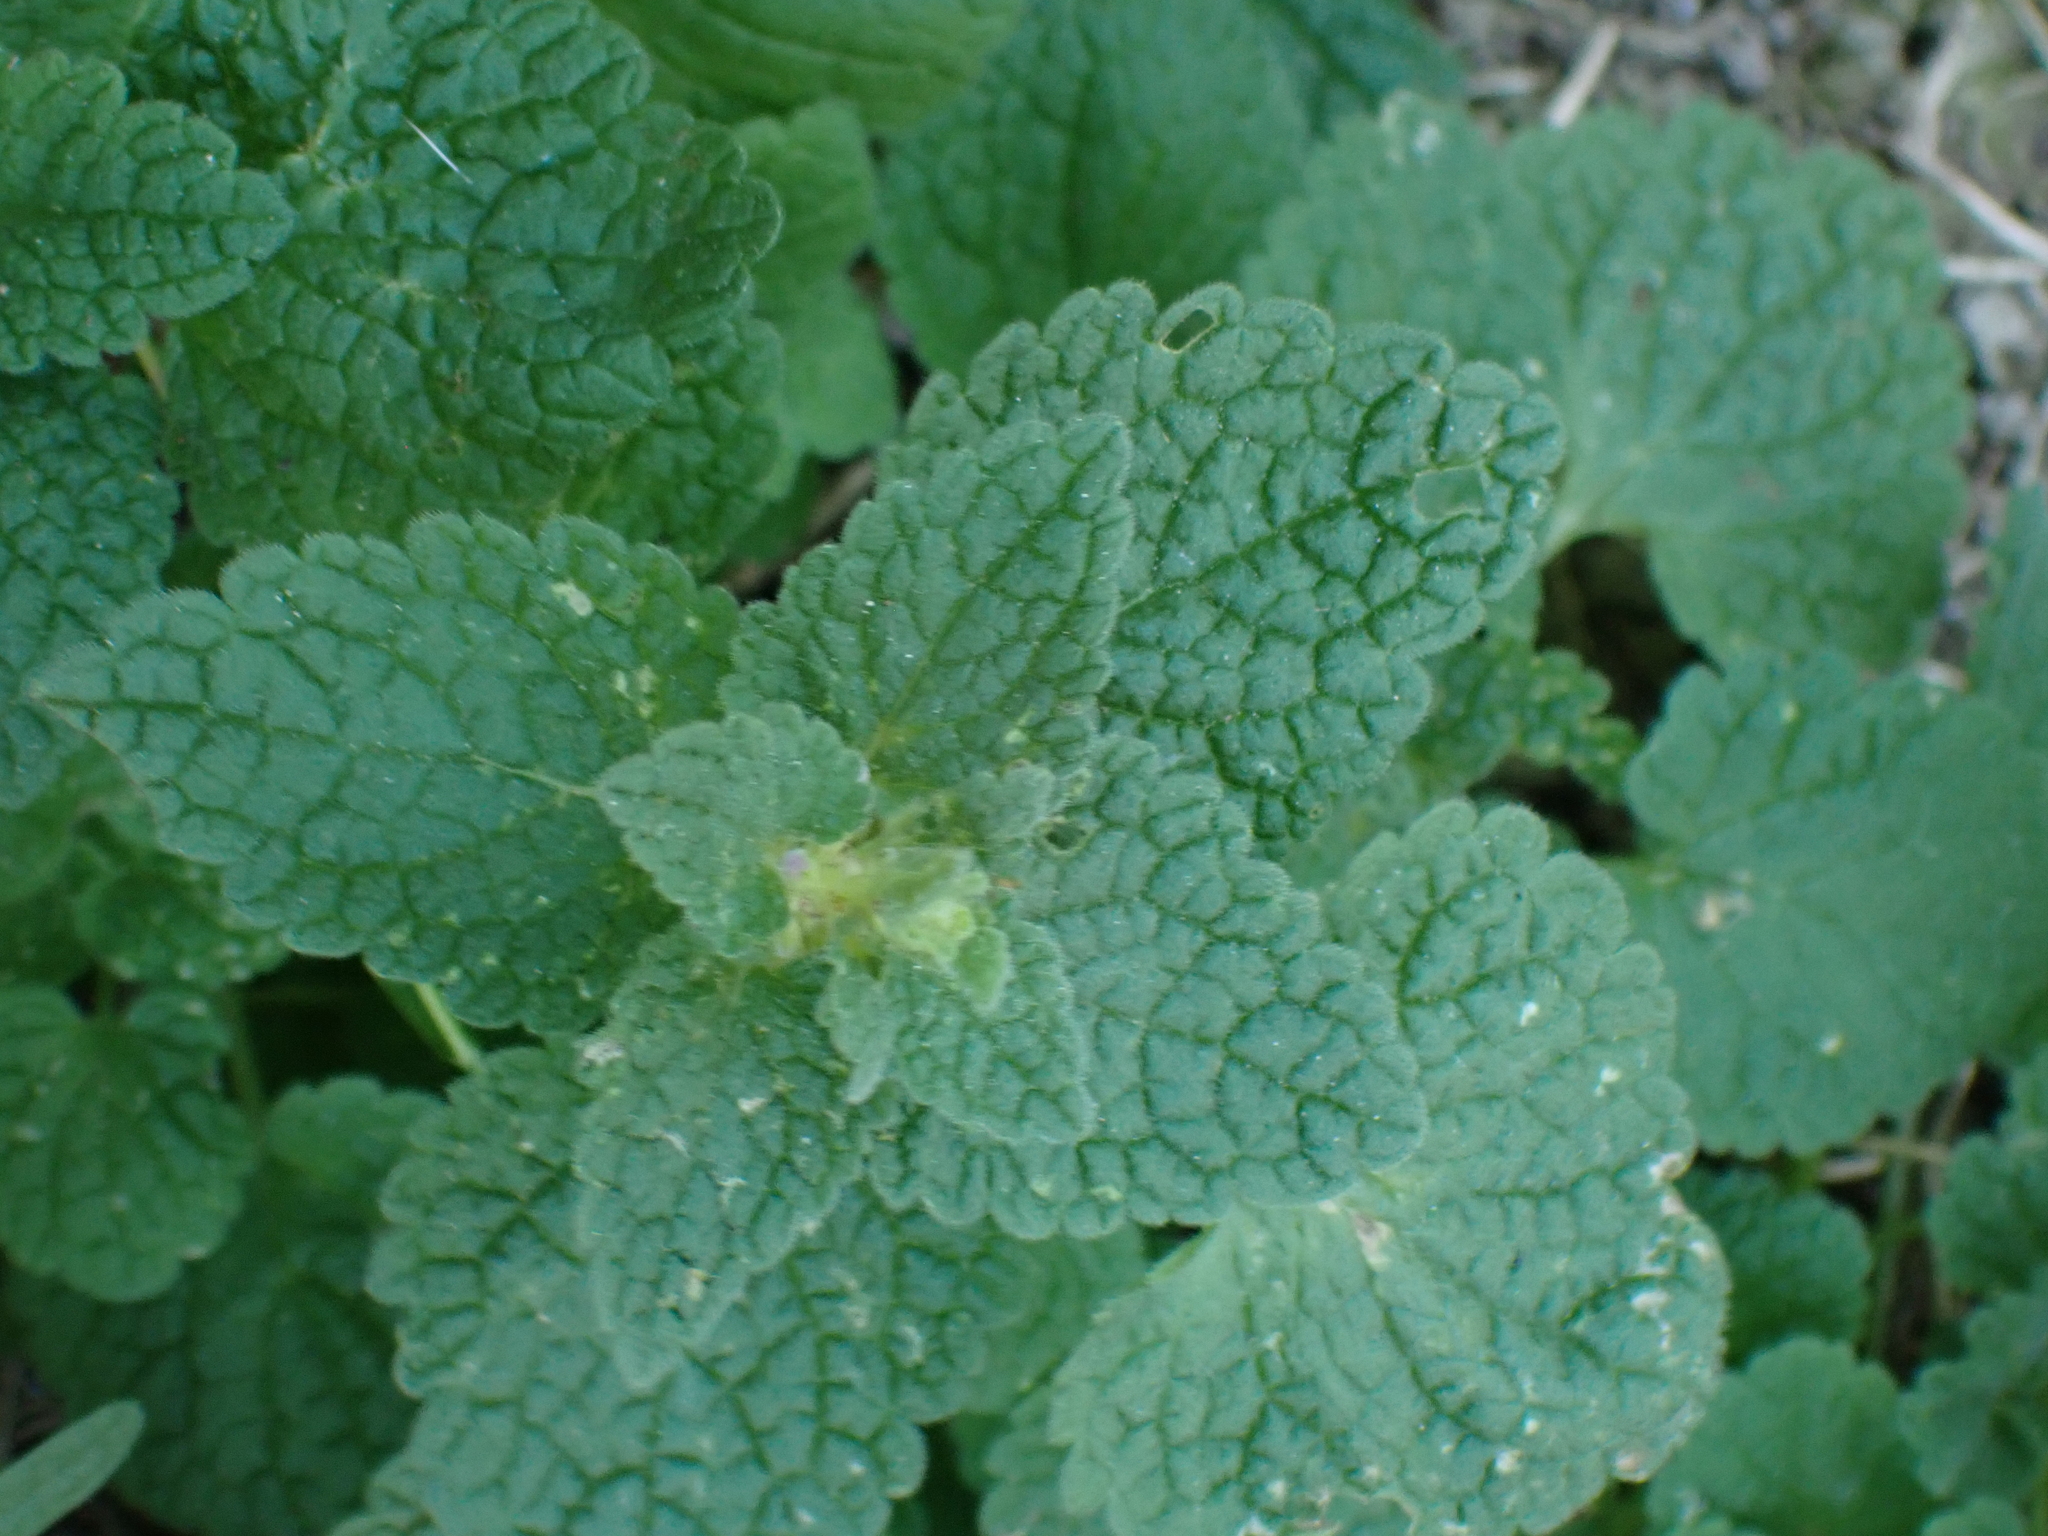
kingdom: Plantae
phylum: Tracheophyta
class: Magnoliopsida
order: Lamiales
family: Lamiaceae
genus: Lamium
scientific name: Lamium album
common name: White dead-nettle
